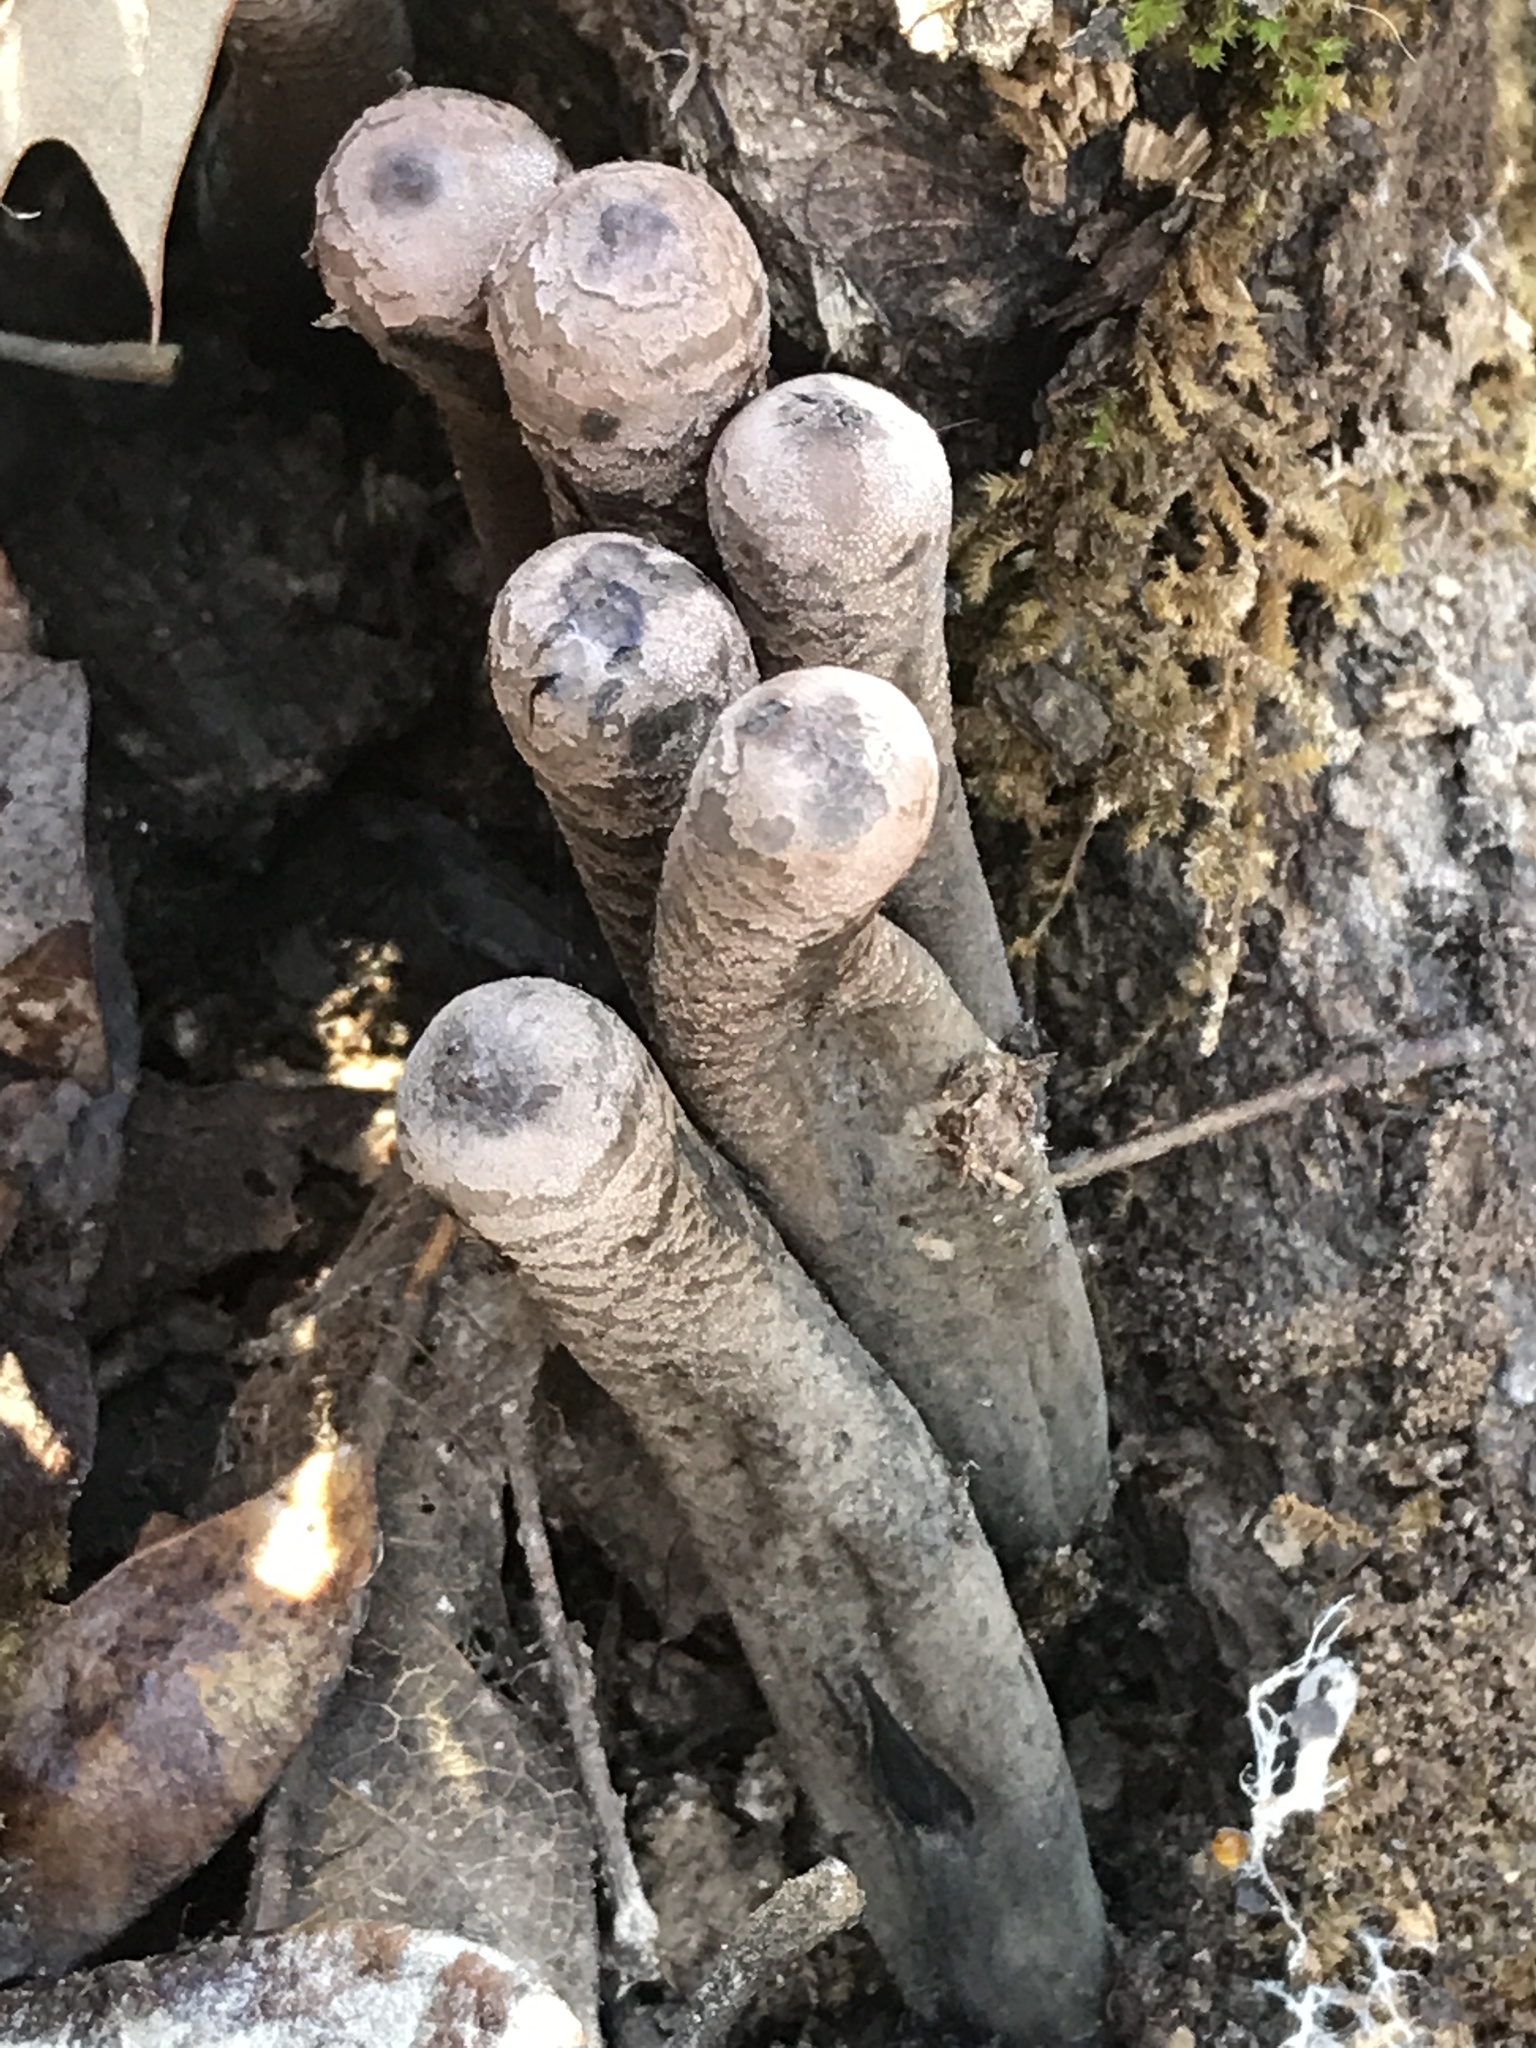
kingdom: Fungi
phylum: Ascomycota
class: Pezizomycetes
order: Pezizales
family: Sarcosomataceae
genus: Urnula
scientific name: Urnula craterium
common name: Devil's urn
